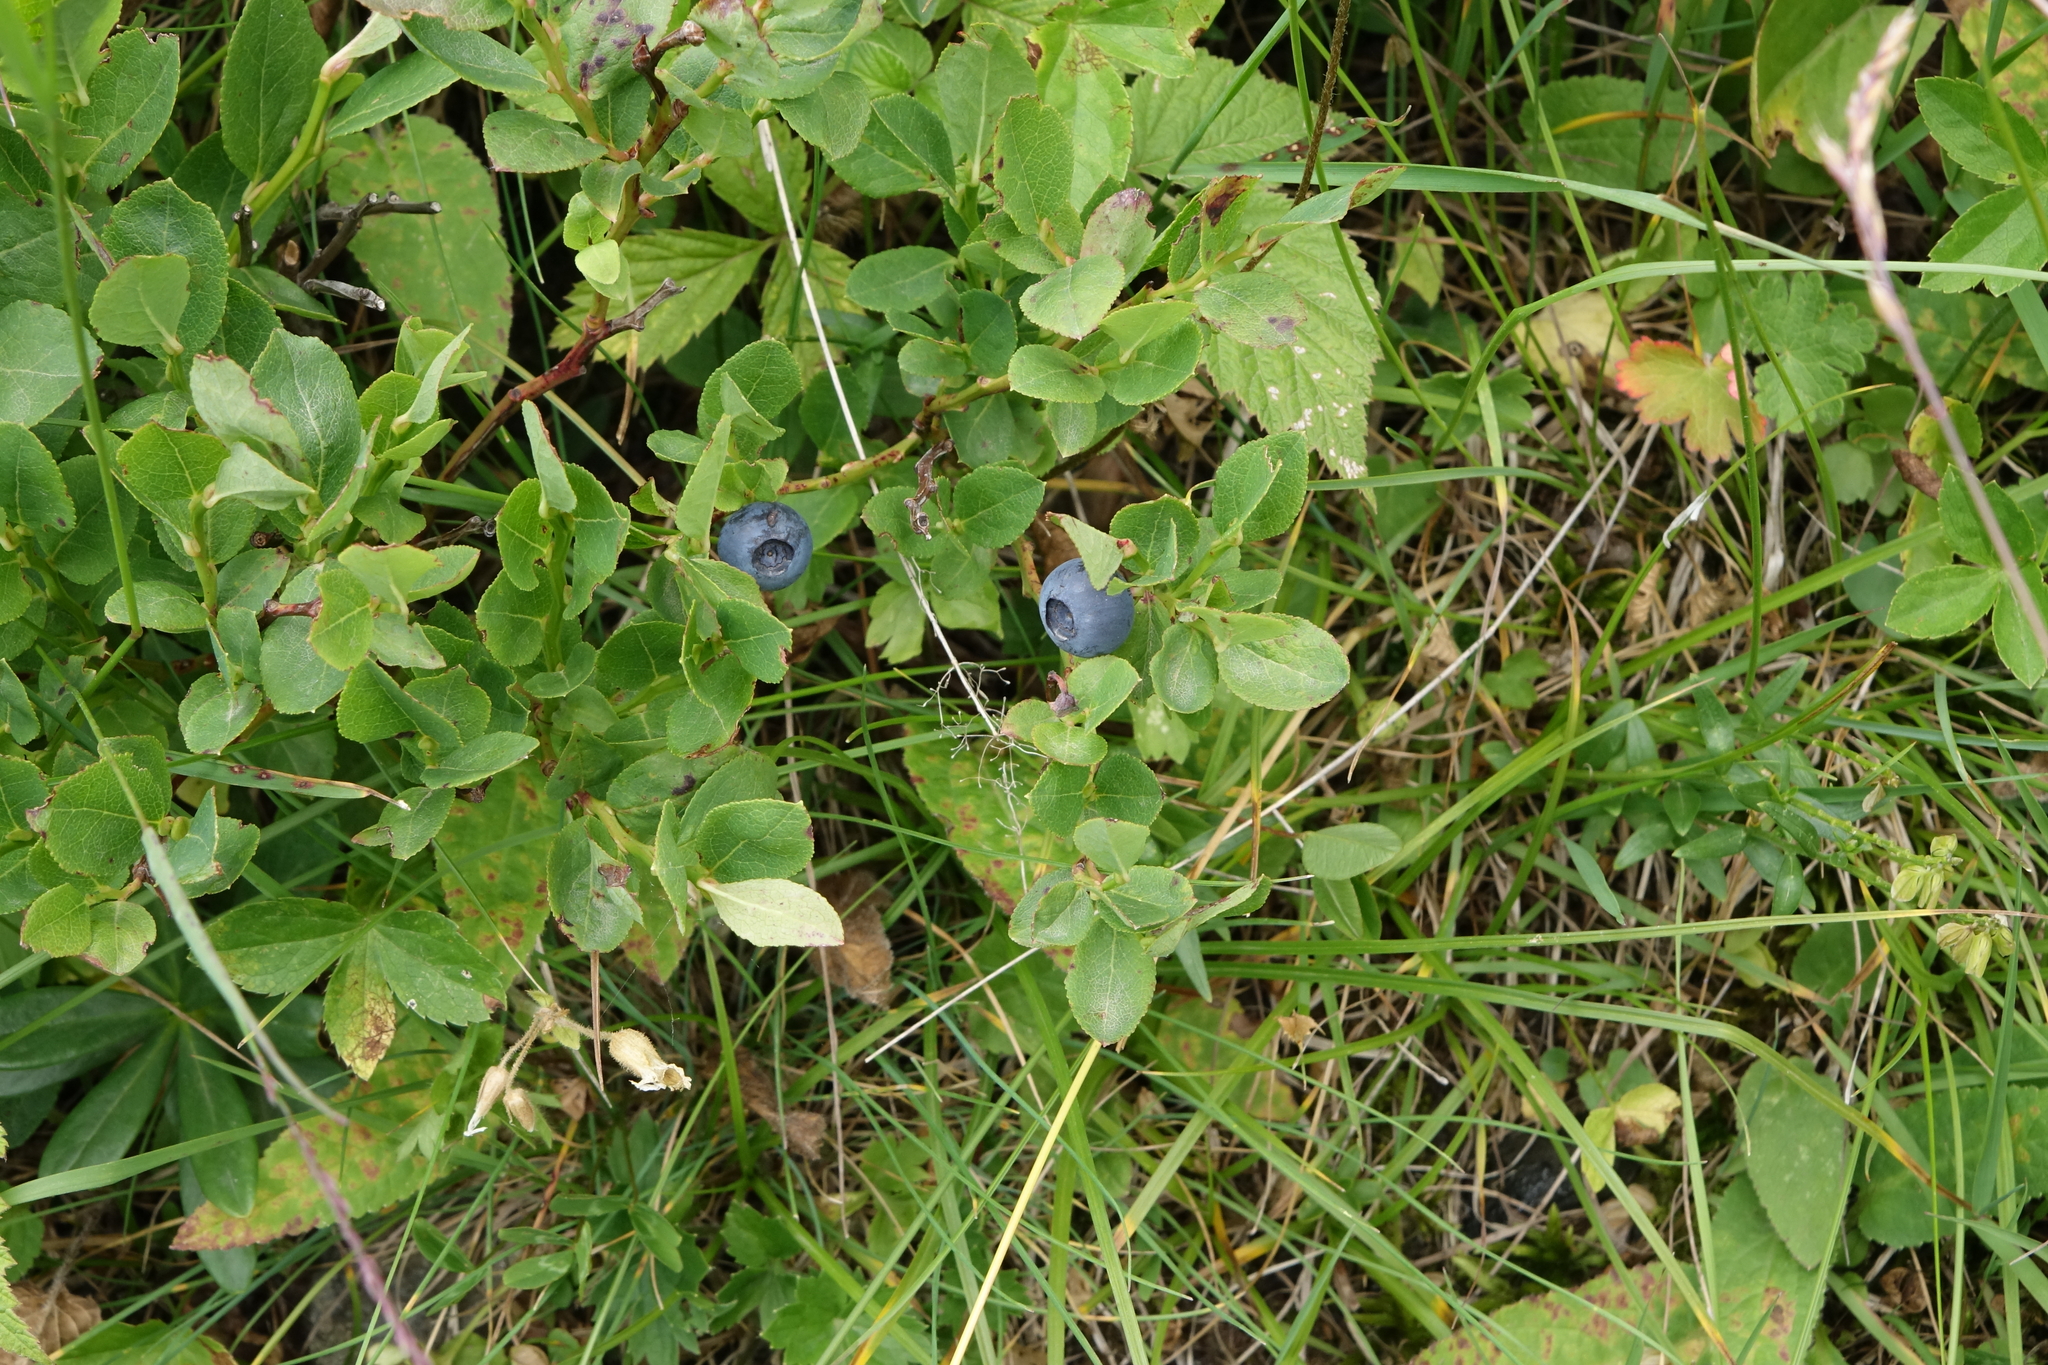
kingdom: Plantae
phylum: Tracheophyta
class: Magnoliopsida
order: Ericales
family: Ericaceae
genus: Vaccinium
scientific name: Vaccinium myrtillus
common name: Bilberry
